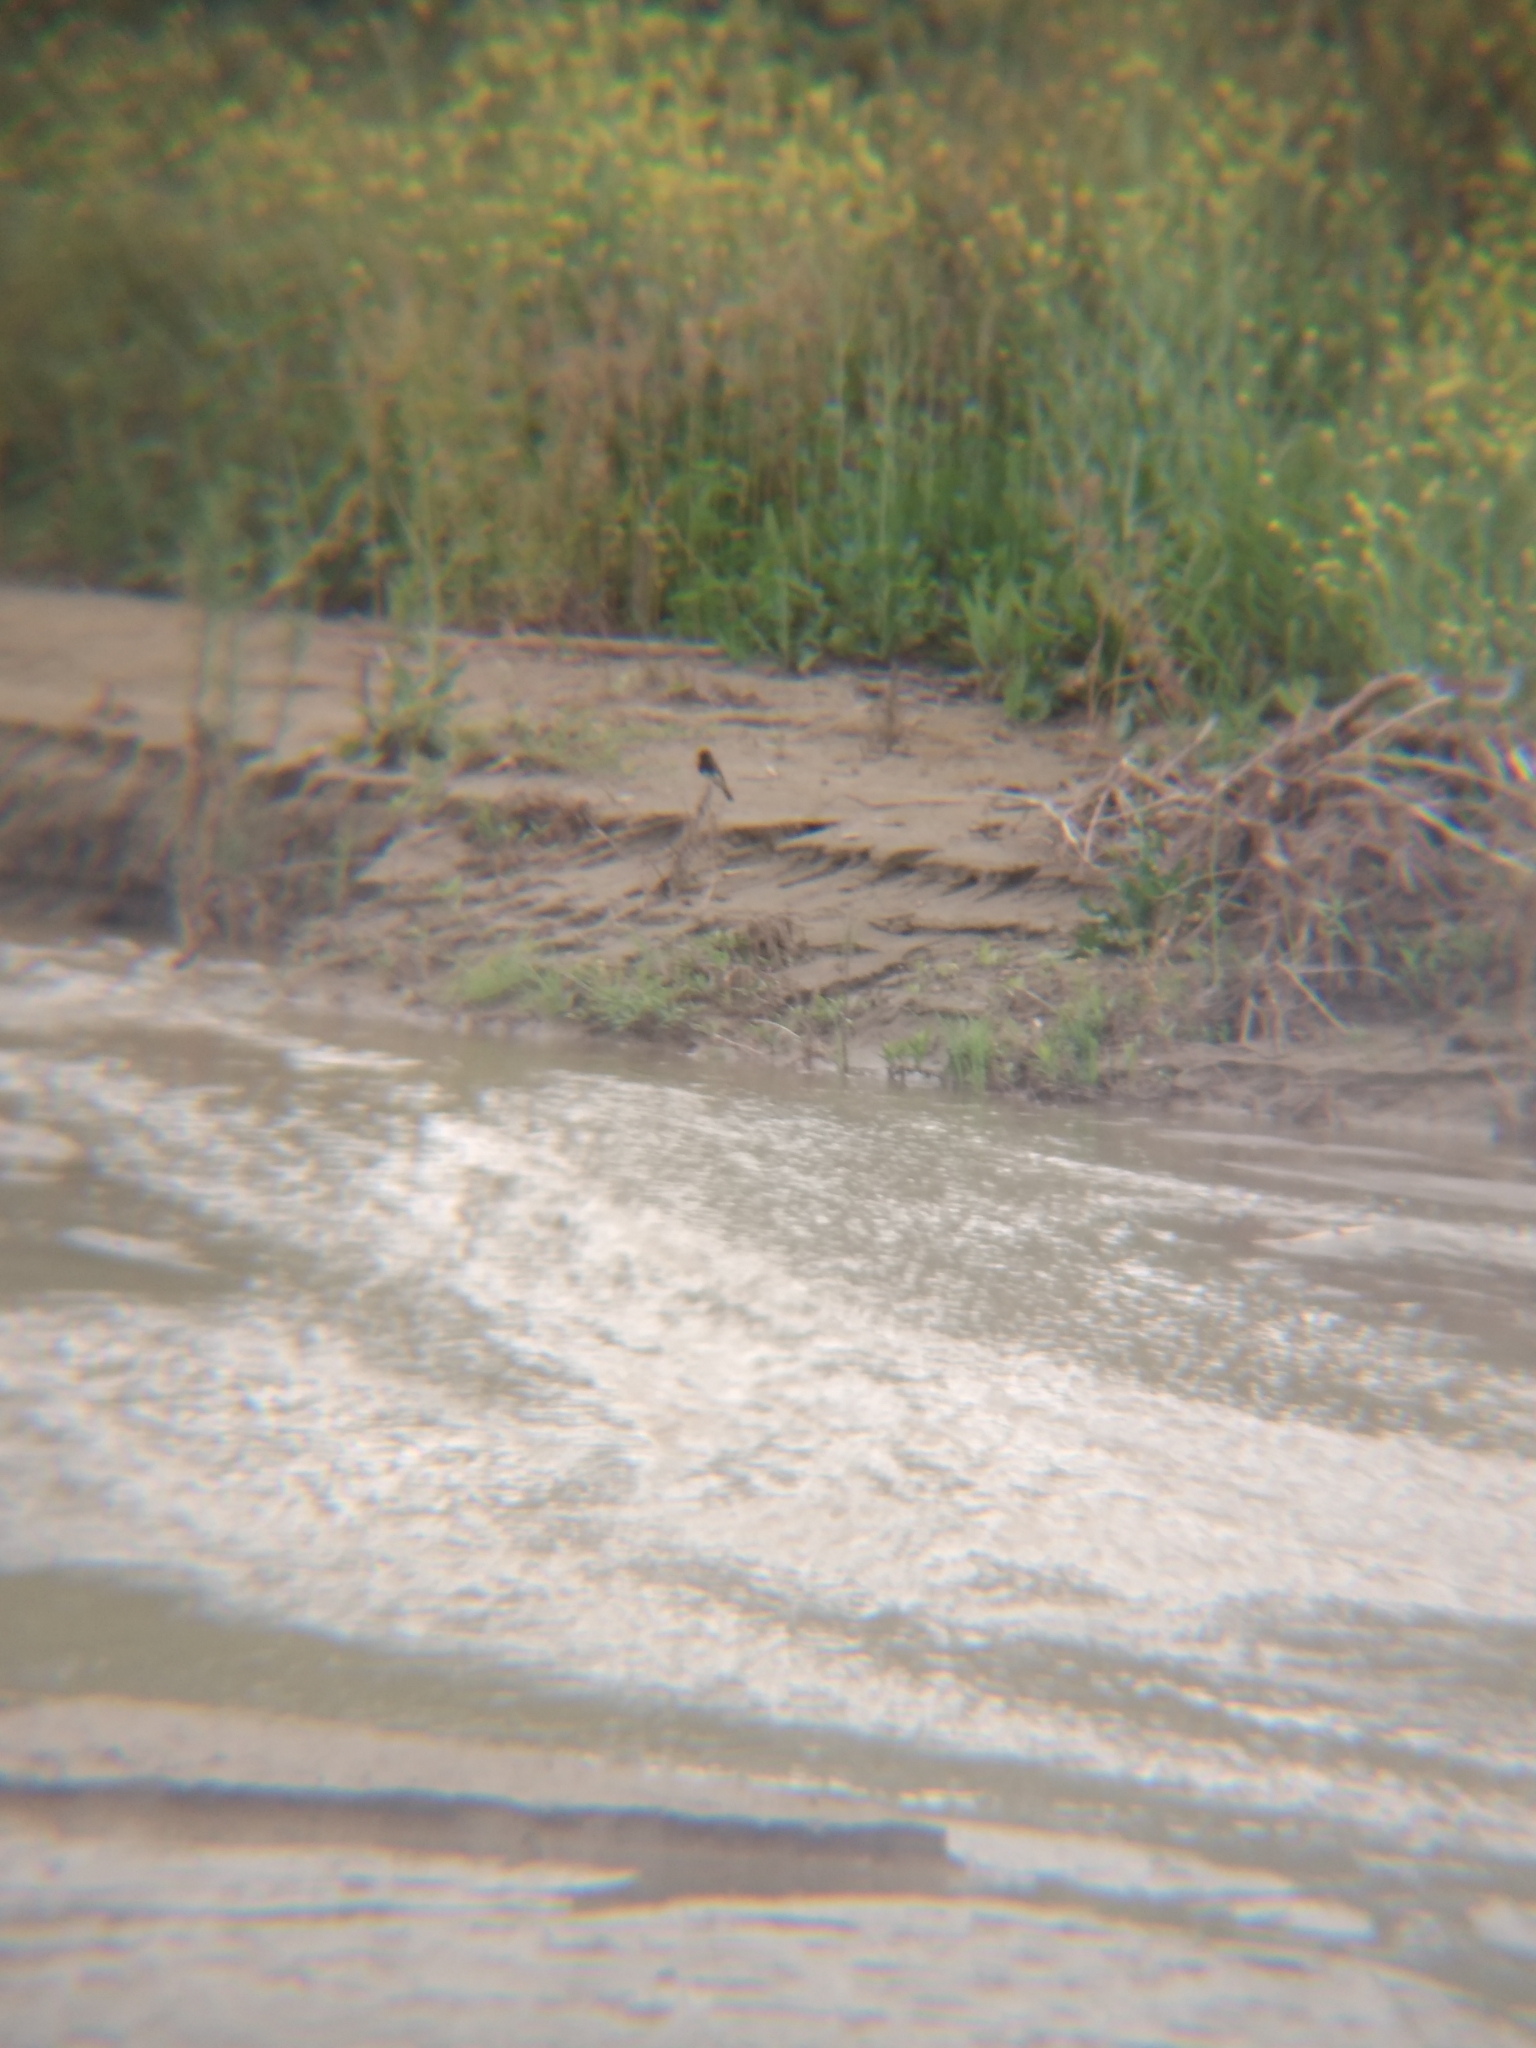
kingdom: Animalia
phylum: Chordata
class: Aves
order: Passeriformes
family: Tyrannidae
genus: Sayornis
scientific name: Sayornis nigricans
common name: Black phoebe
